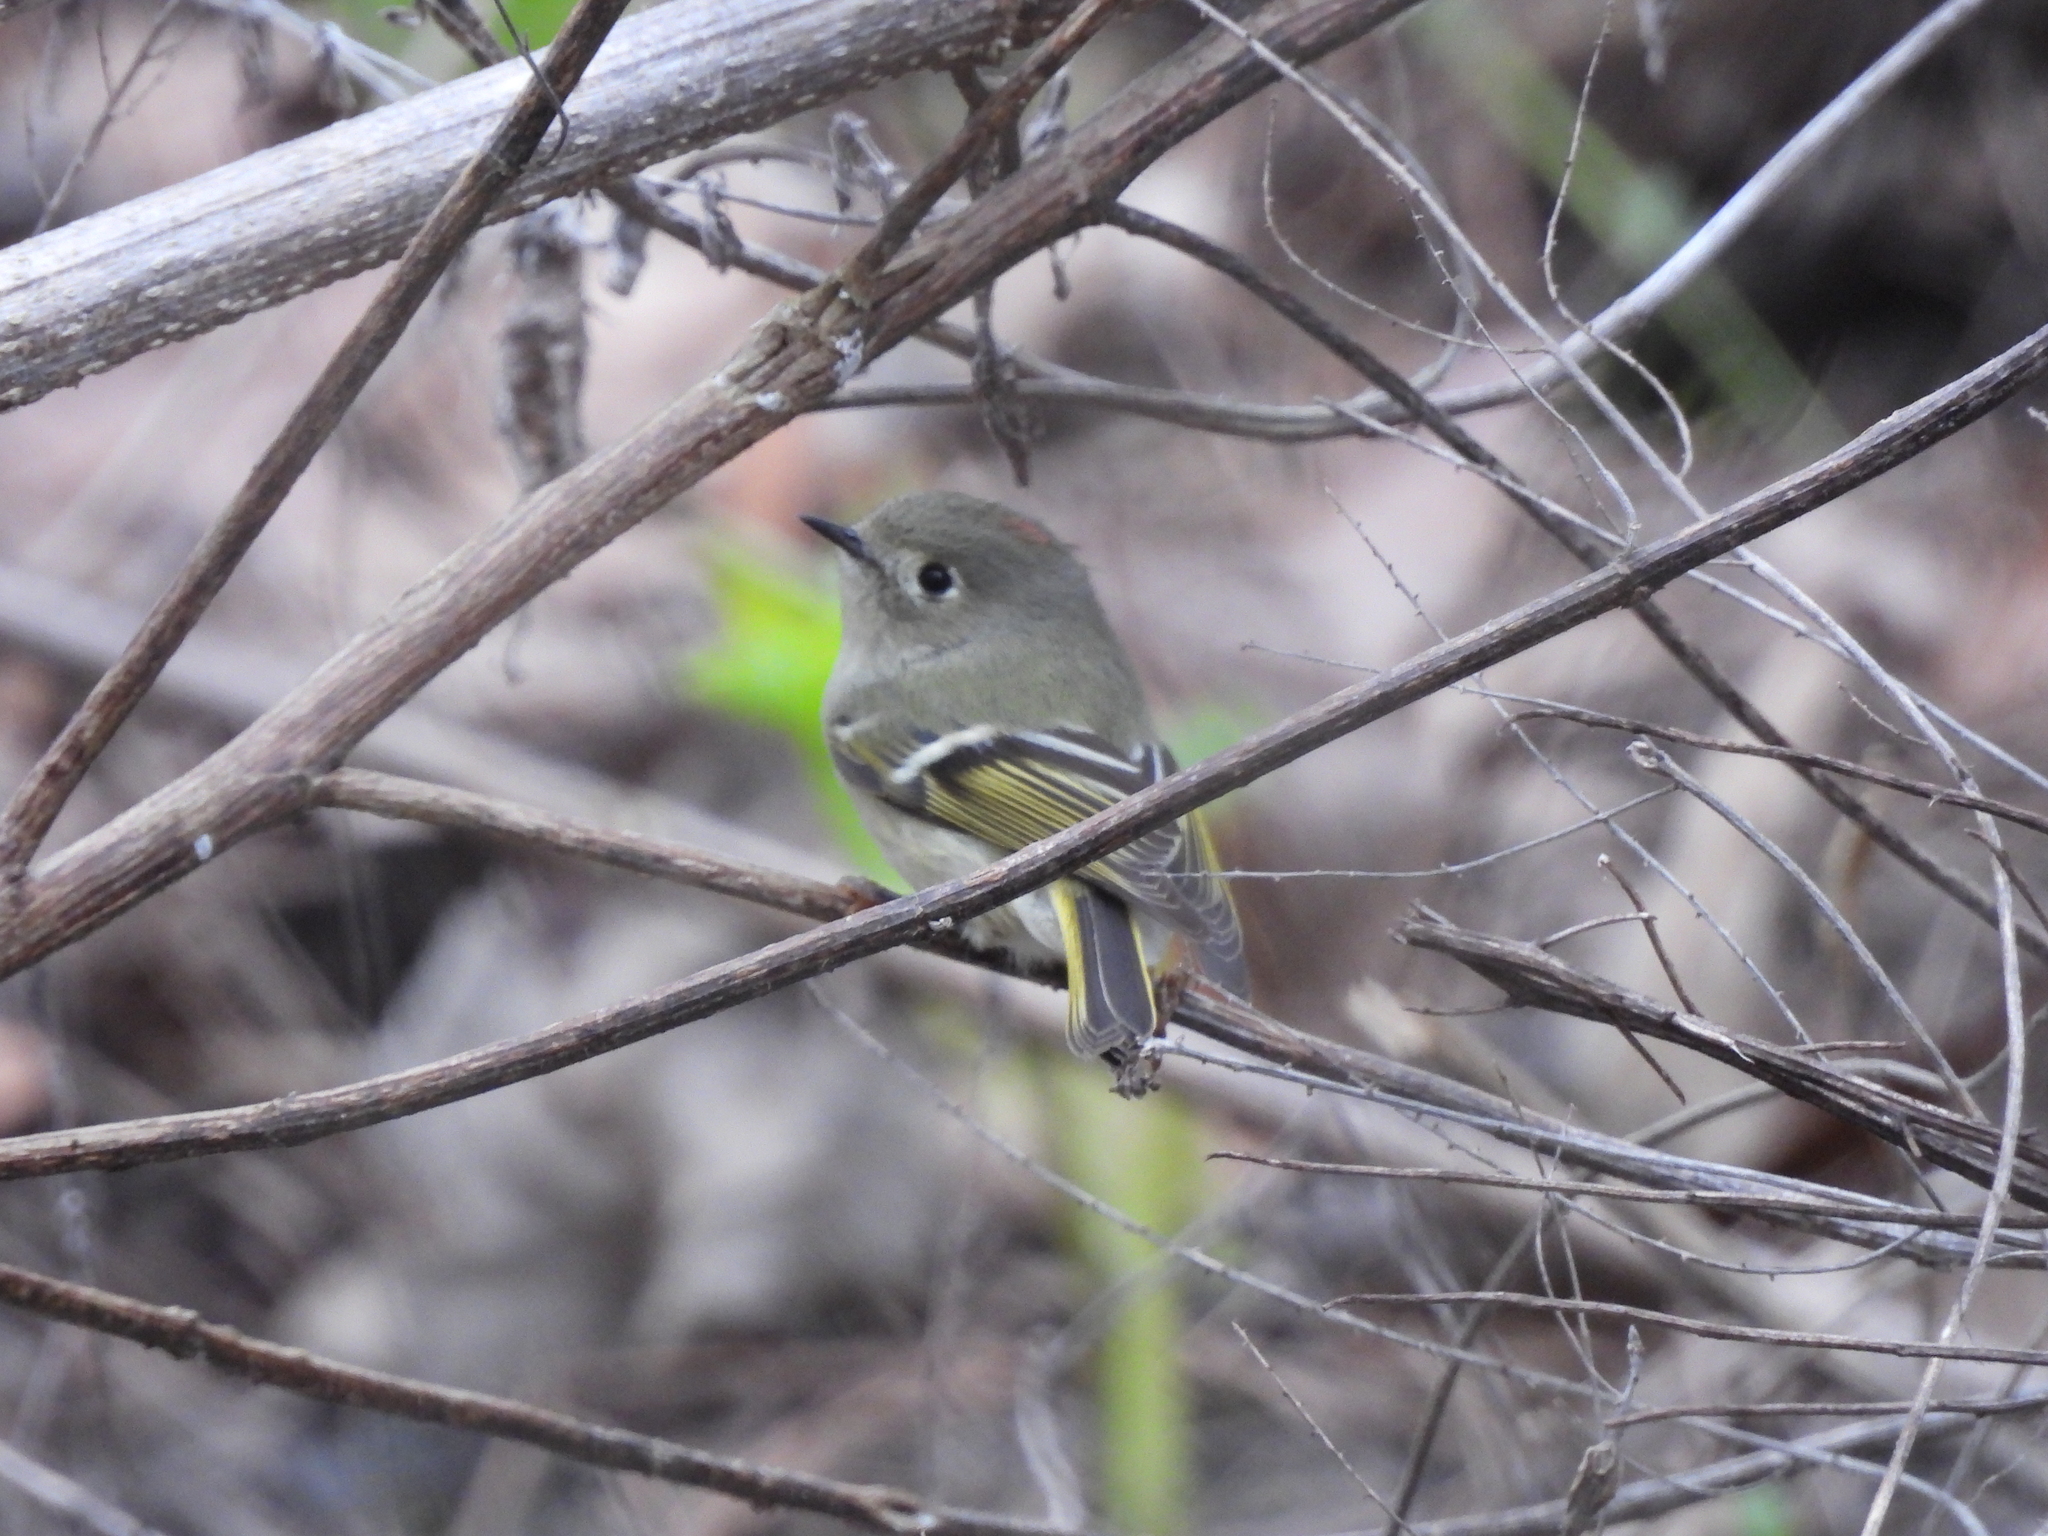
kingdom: Animalia
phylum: Chordata
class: Aves
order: Passeriformes
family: Regulidae
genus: Regulus
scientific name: Regulus calendula
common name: Ruby-crowned kinglet
